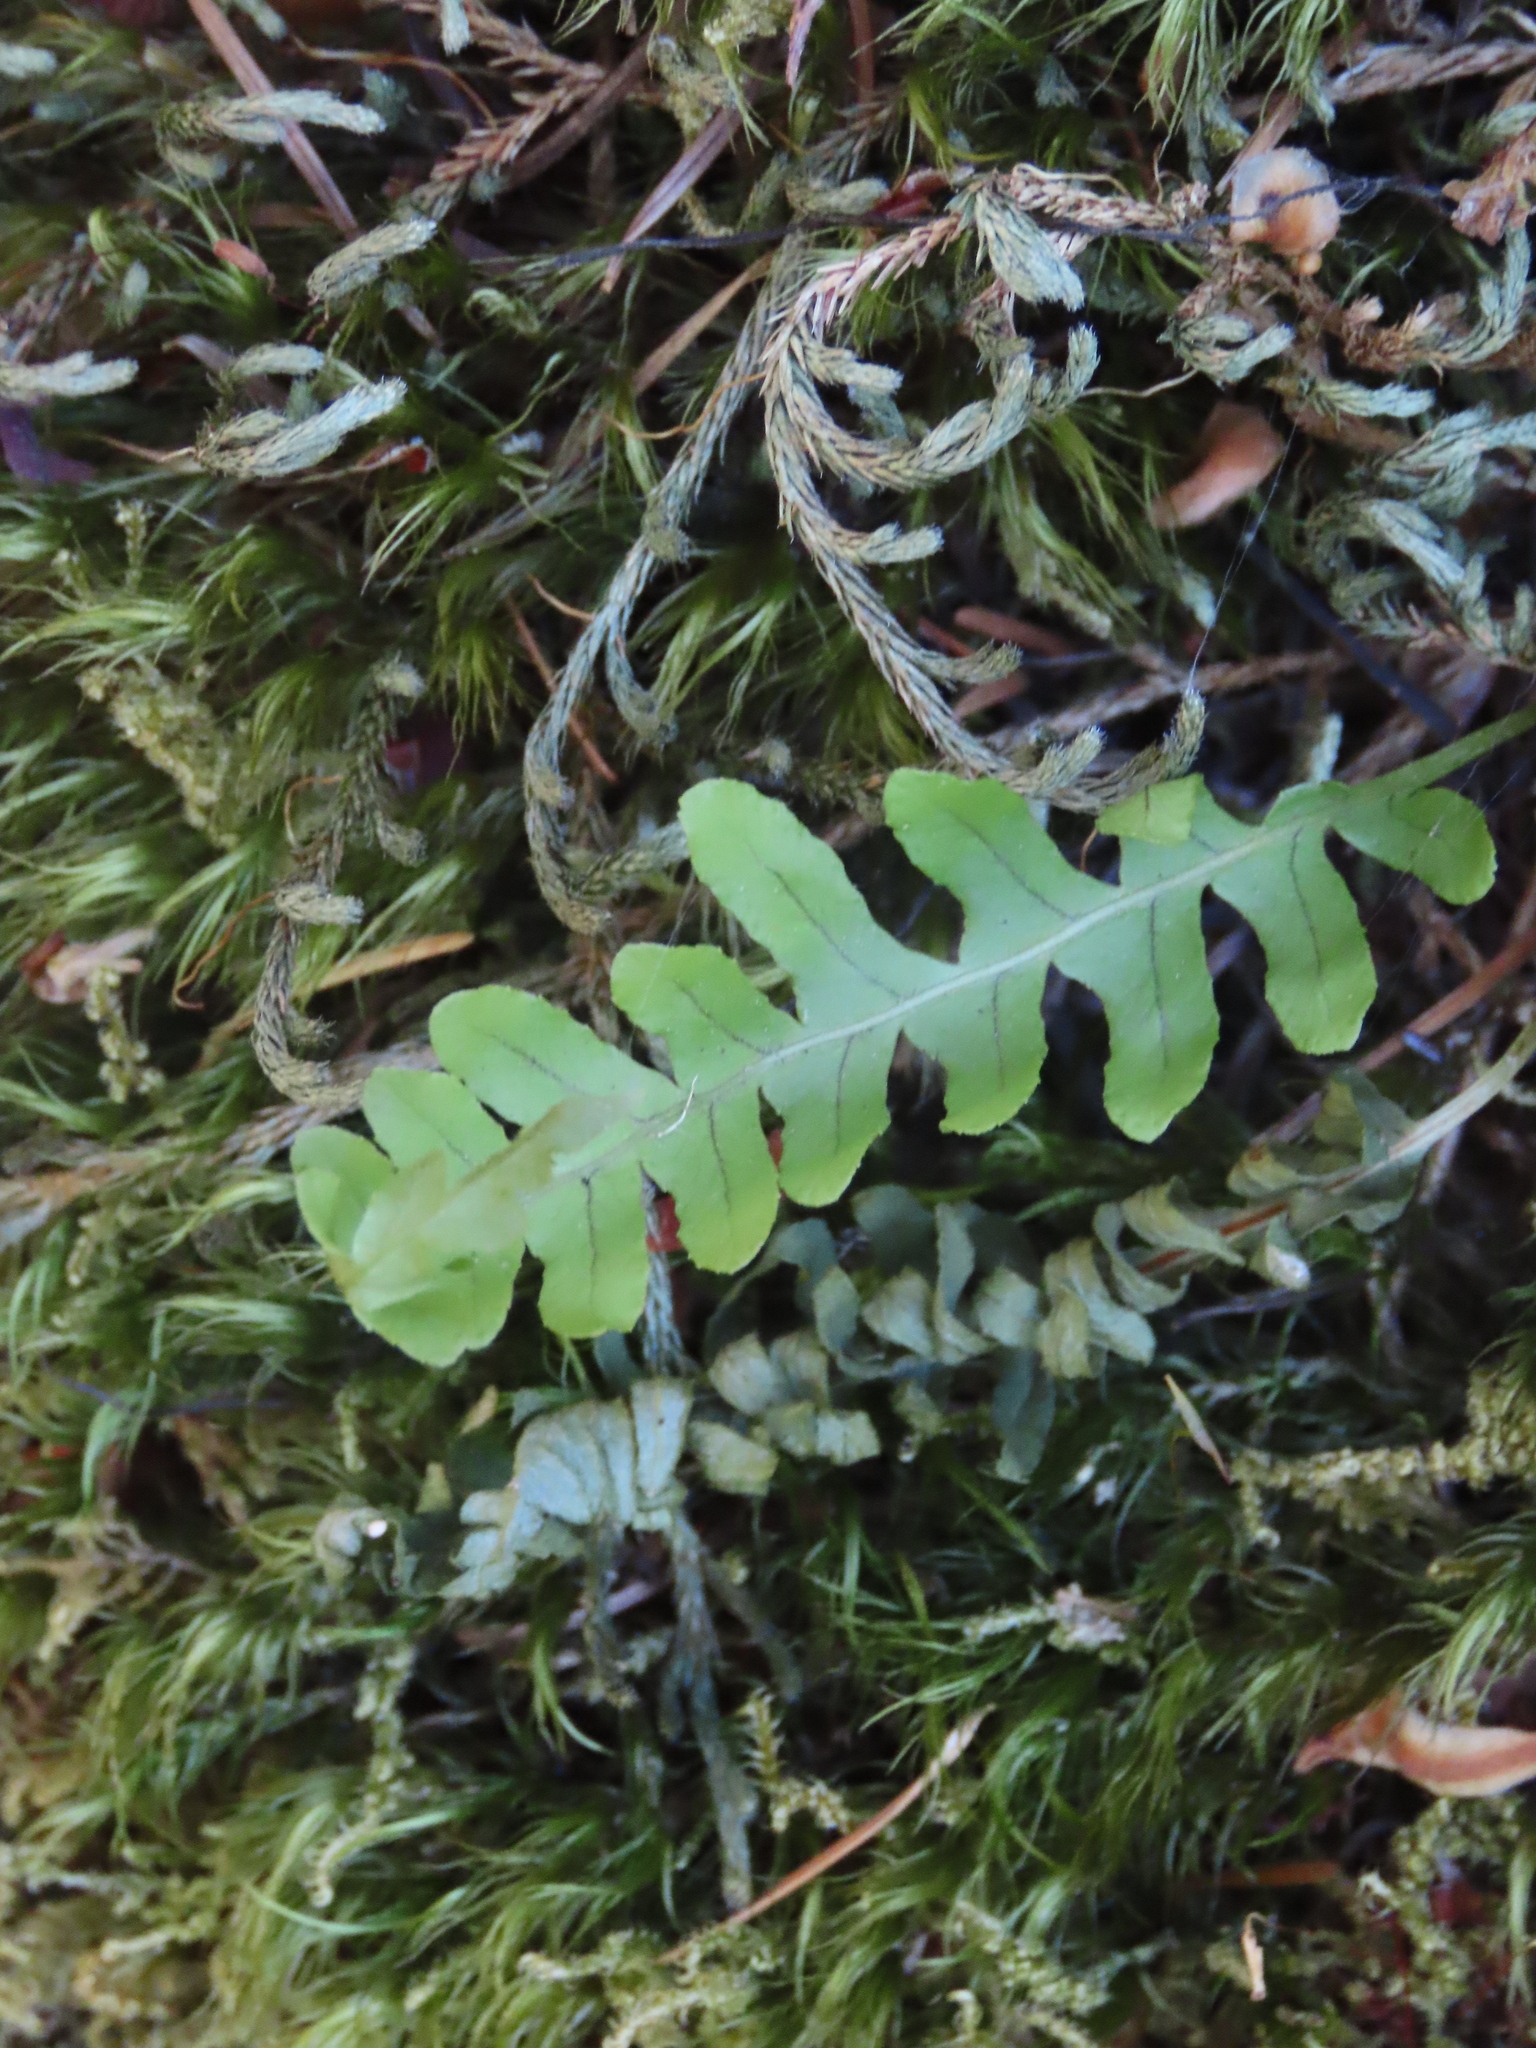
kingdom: Plantae
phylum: Tracheophyta
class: Polypodiopsida
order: Polypodiales
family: Polypodiaceae
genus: Polypodium
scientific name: Polypodium glycyrrhiza
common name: Licorice fern
